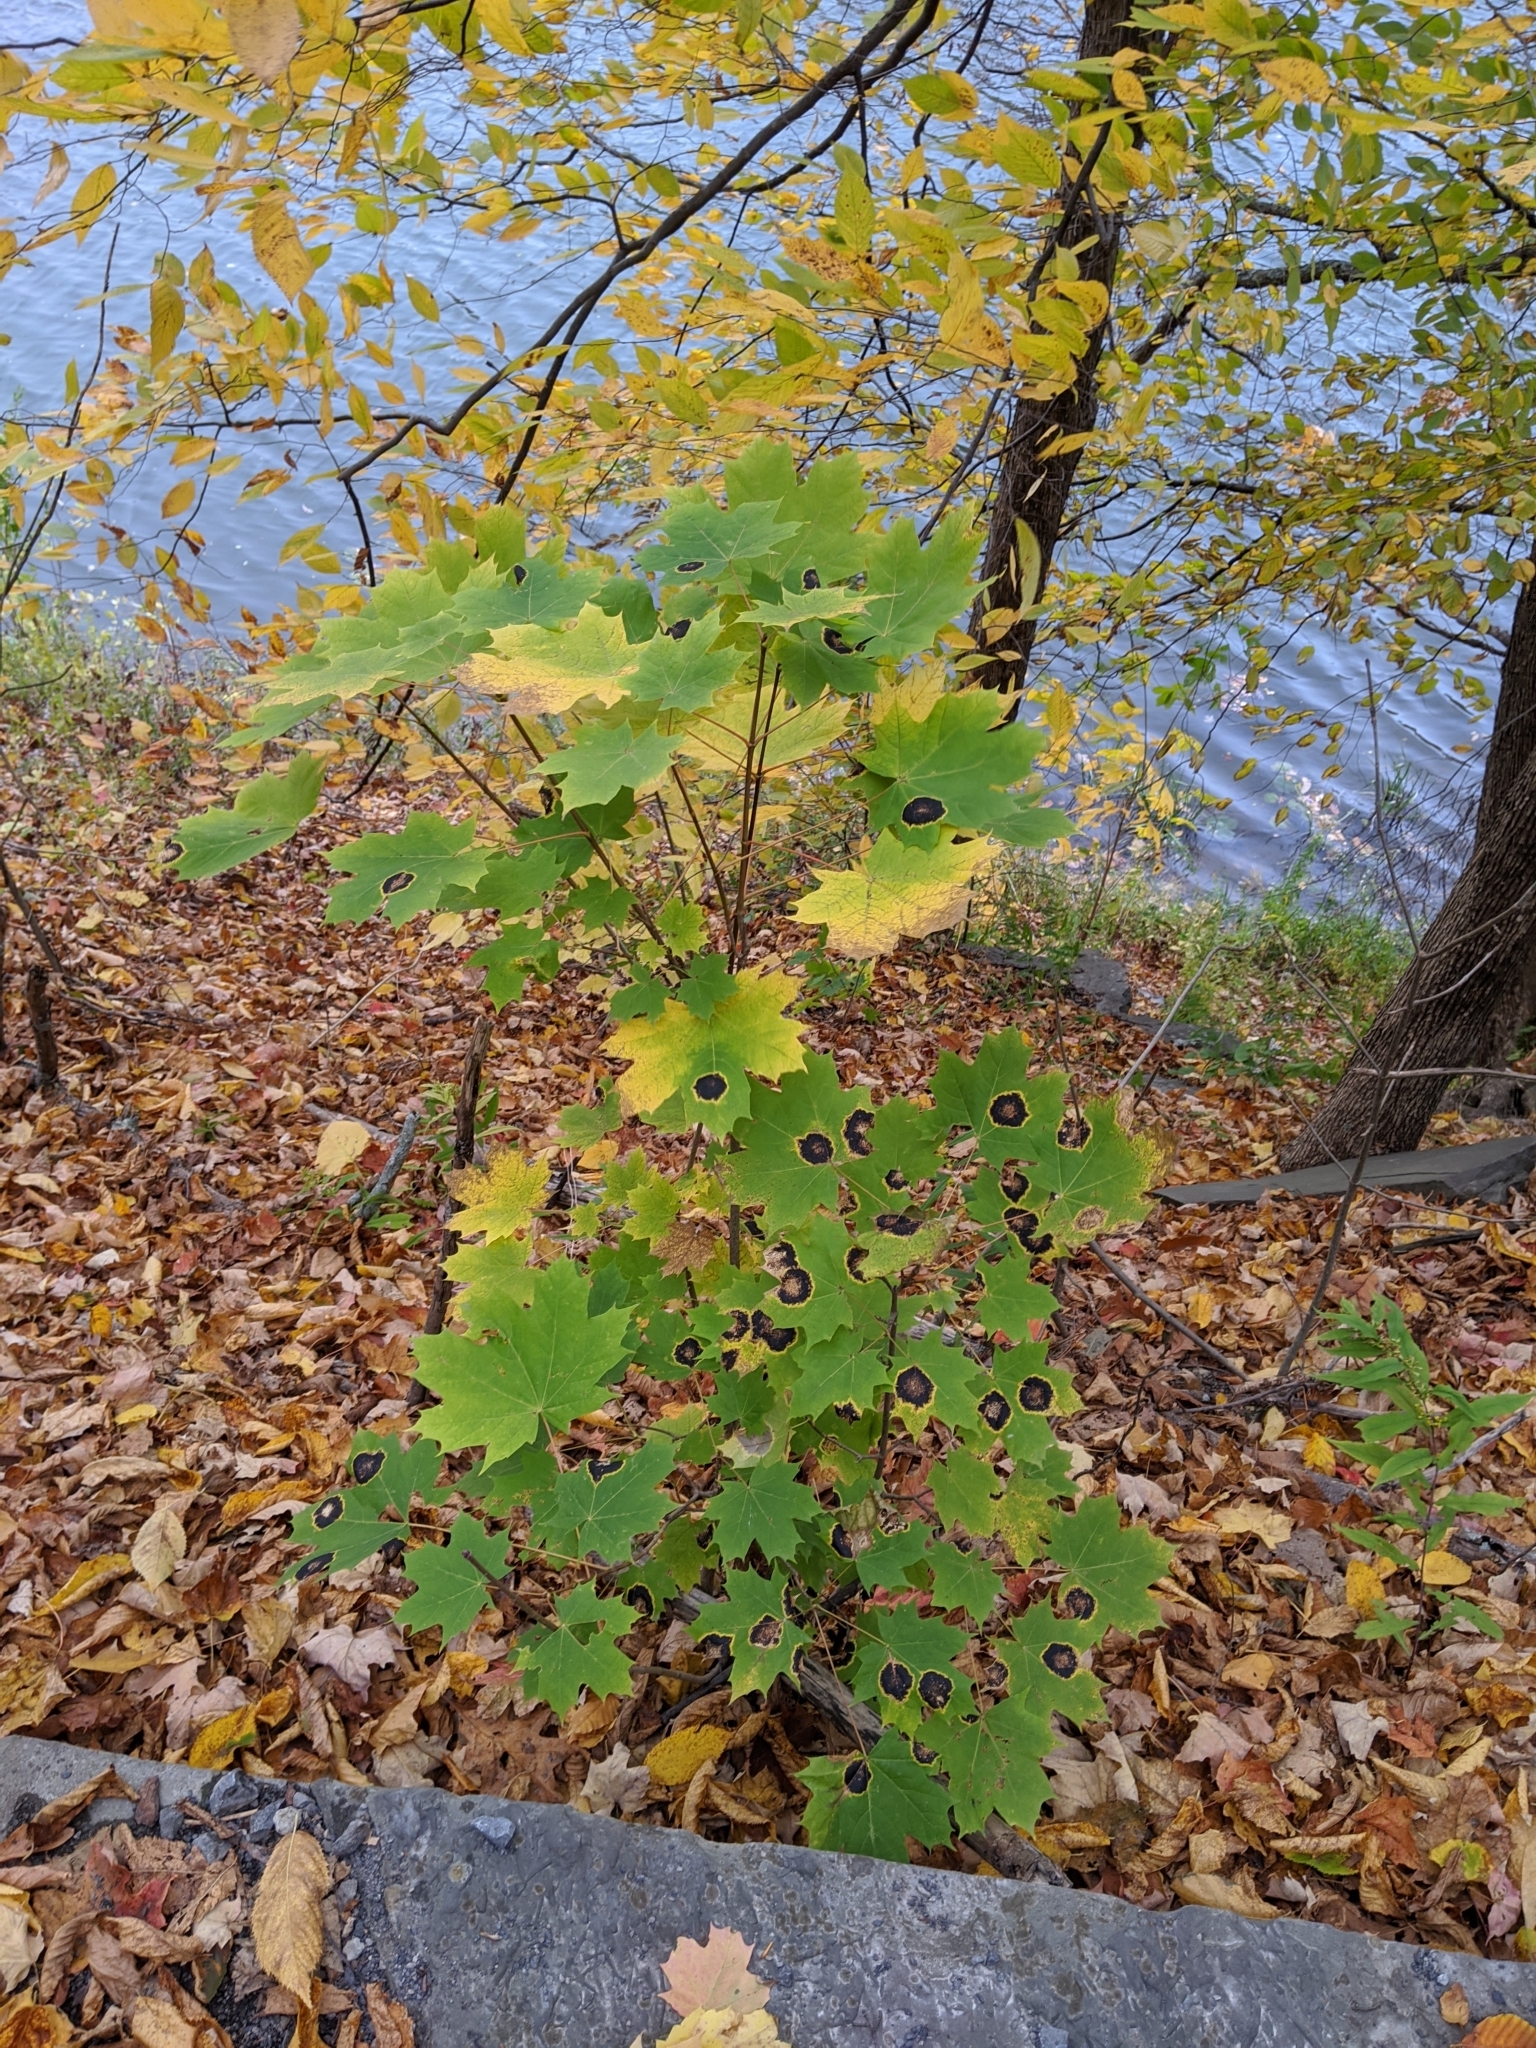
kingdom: Fungi
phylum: Ascomycota
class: Leotiomycetes
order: Rhytismatales
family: Rhytismataceae
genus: Rhytisma
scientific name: Rhytisma acerinum
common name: European tar spot
